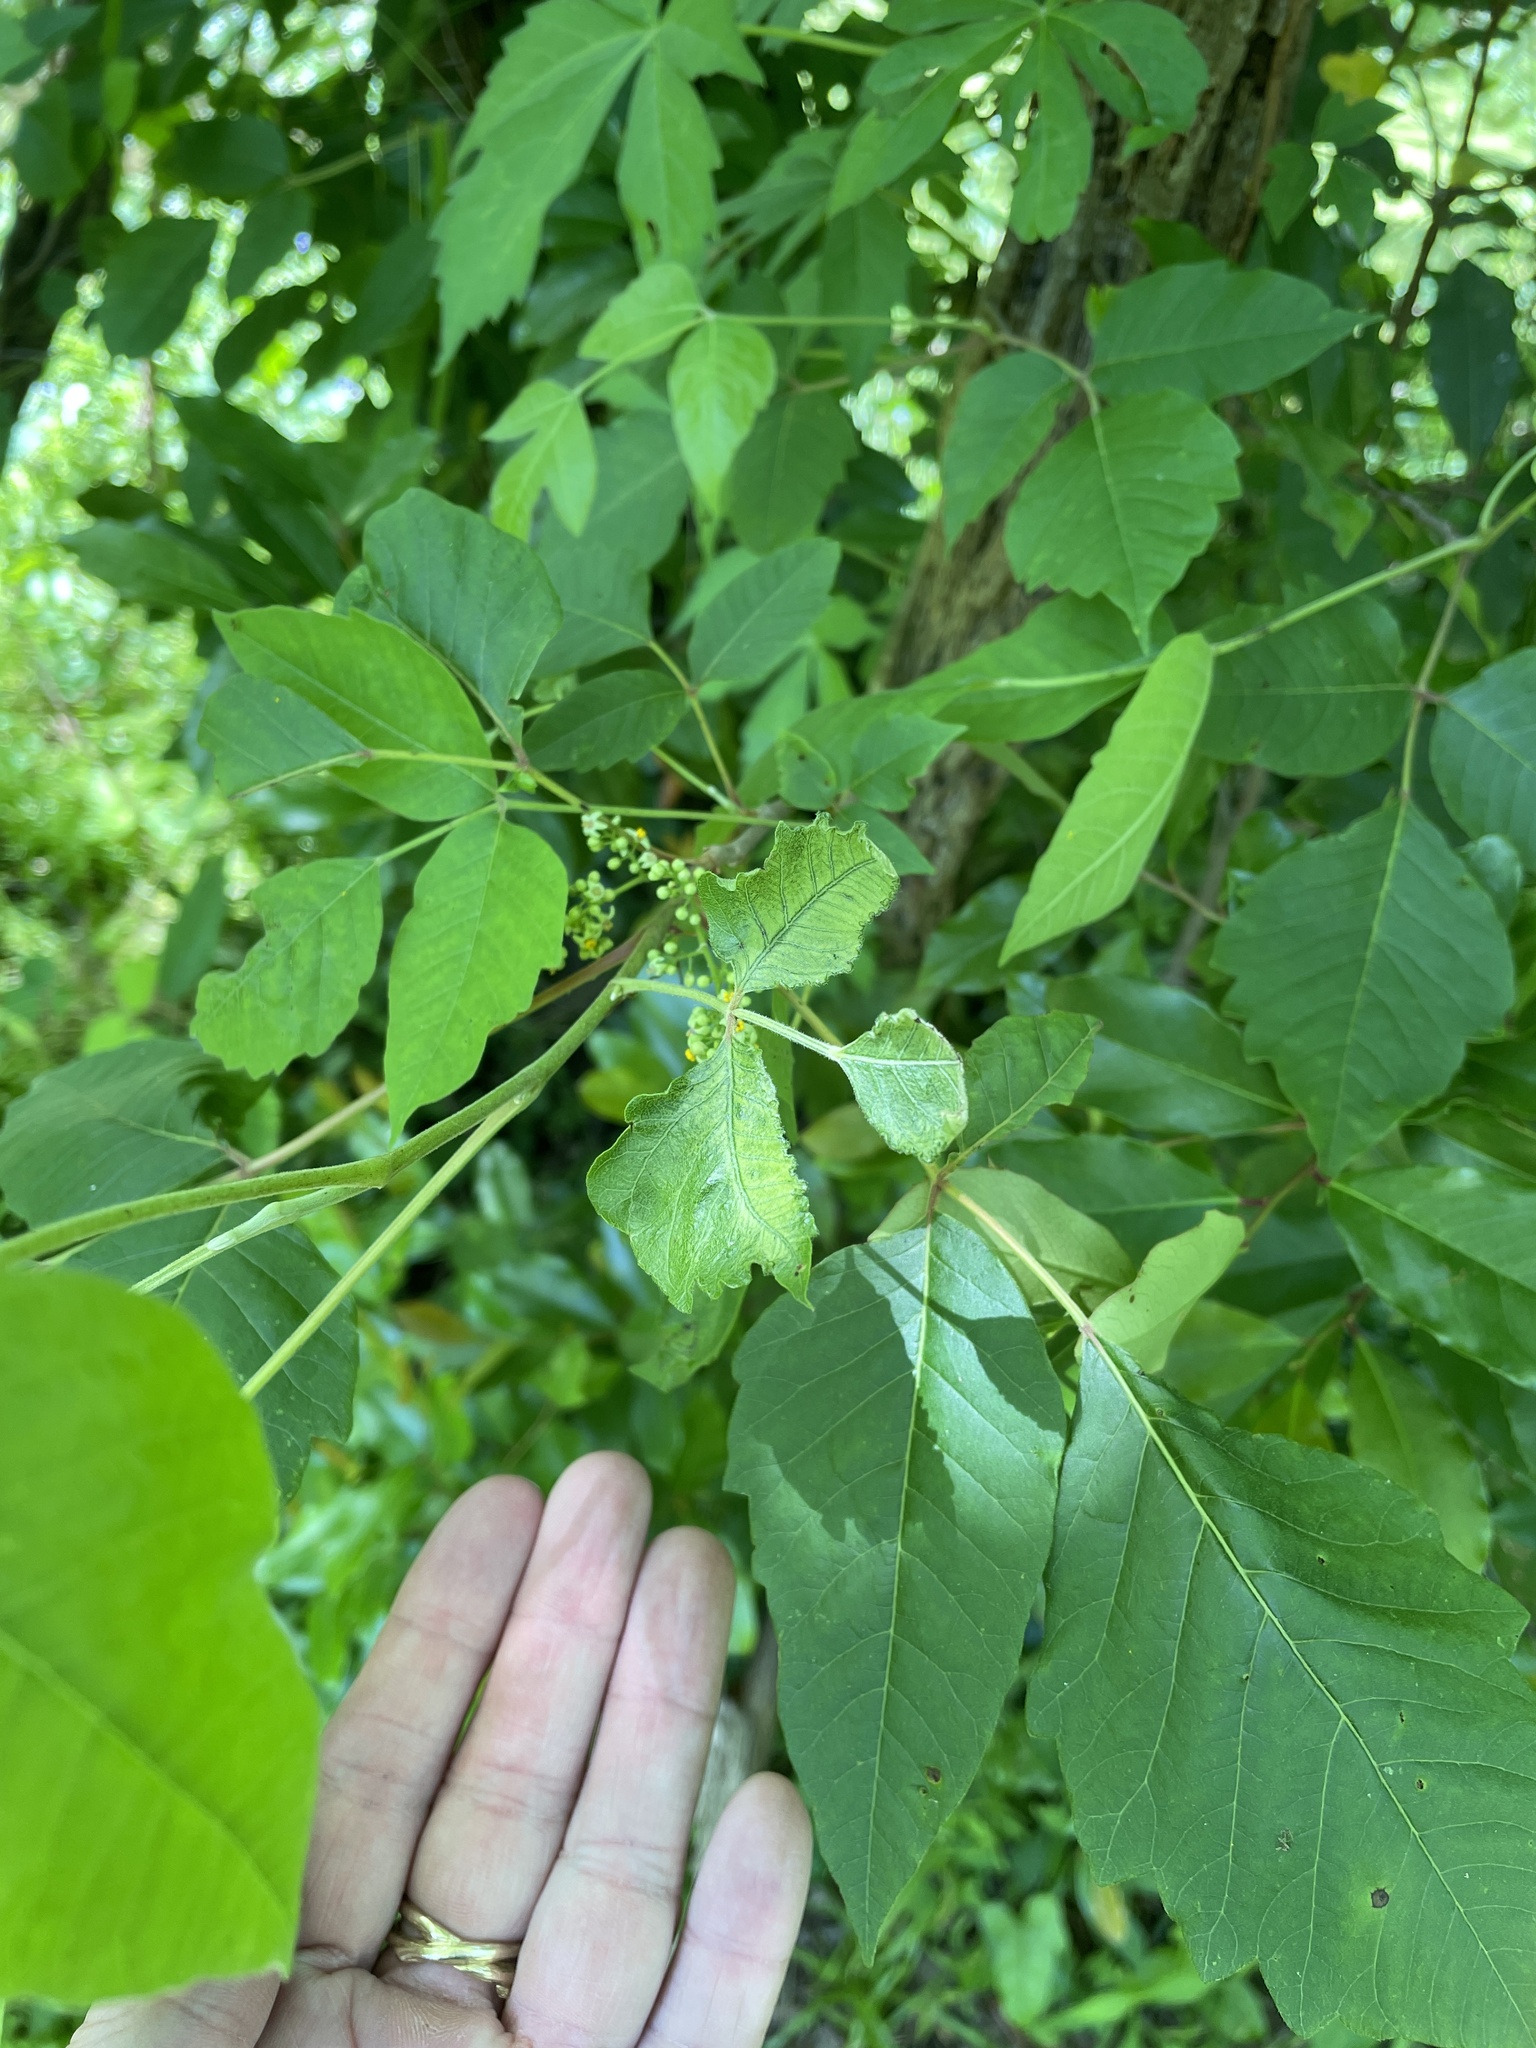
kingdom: Plantae
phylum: Tracheophyta
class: Magnoliopsida
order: Sapindales
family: Anacardiaceae
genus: Toxicodendron
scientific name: Toxicodendron radicans
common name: Poison ivy
